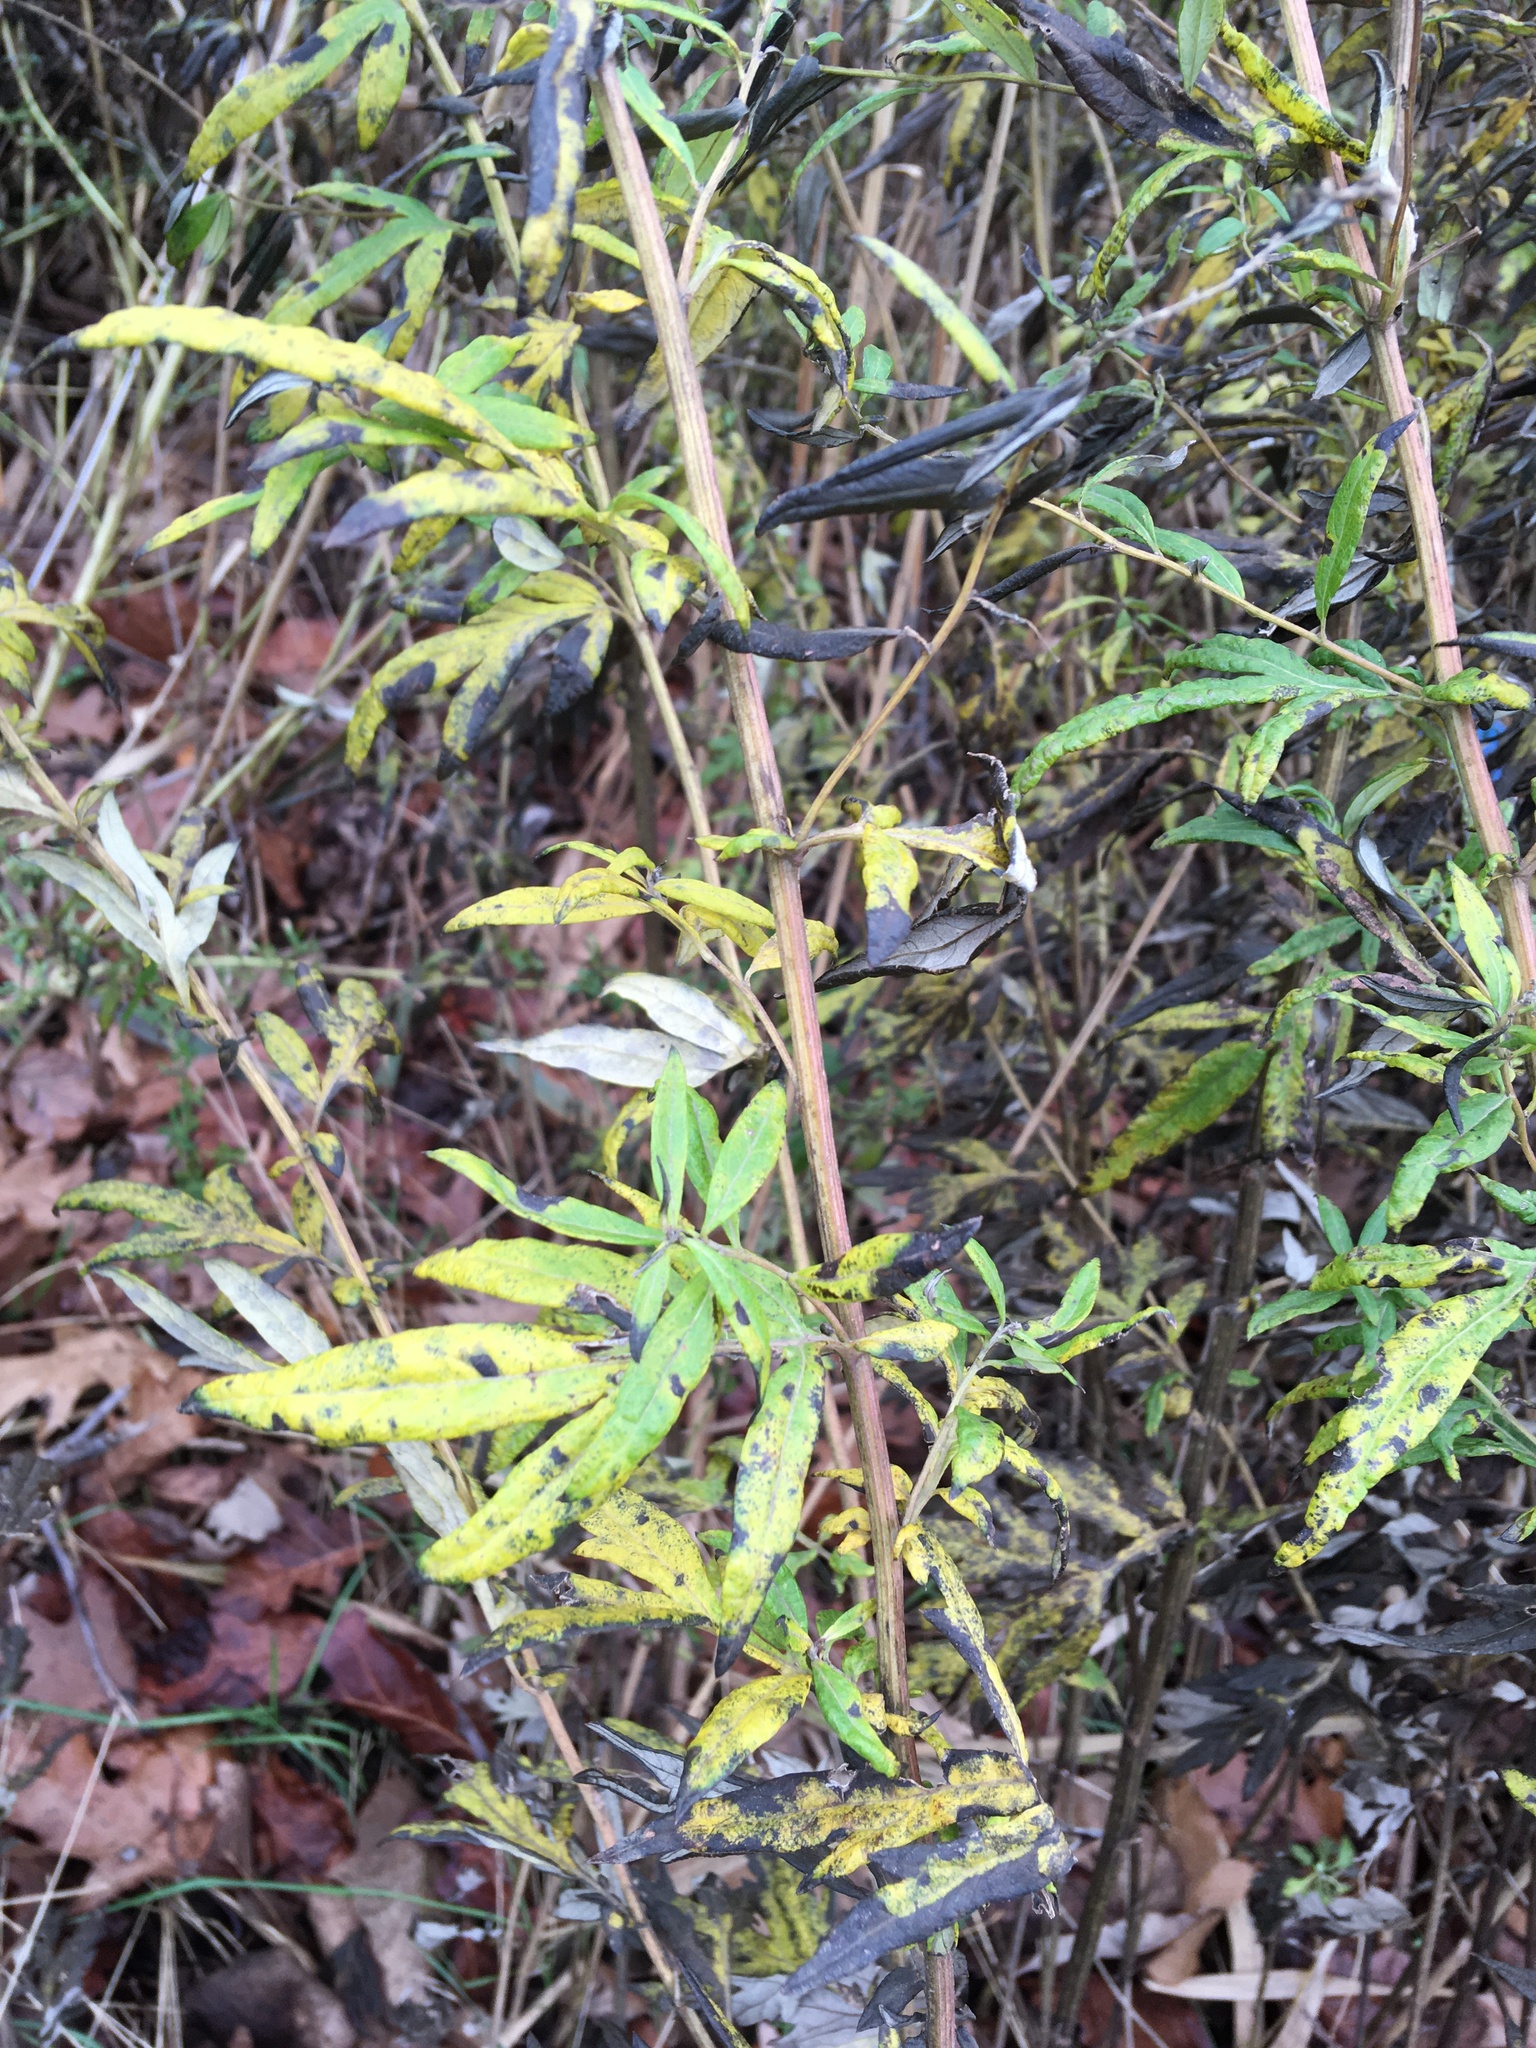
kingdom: Plantae
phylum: Tracheophyta
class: Magnoliopsida
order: Asterales
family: Asteraceae
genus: Artemisia
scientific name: Artemisia vulgaris
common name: Mugwort
